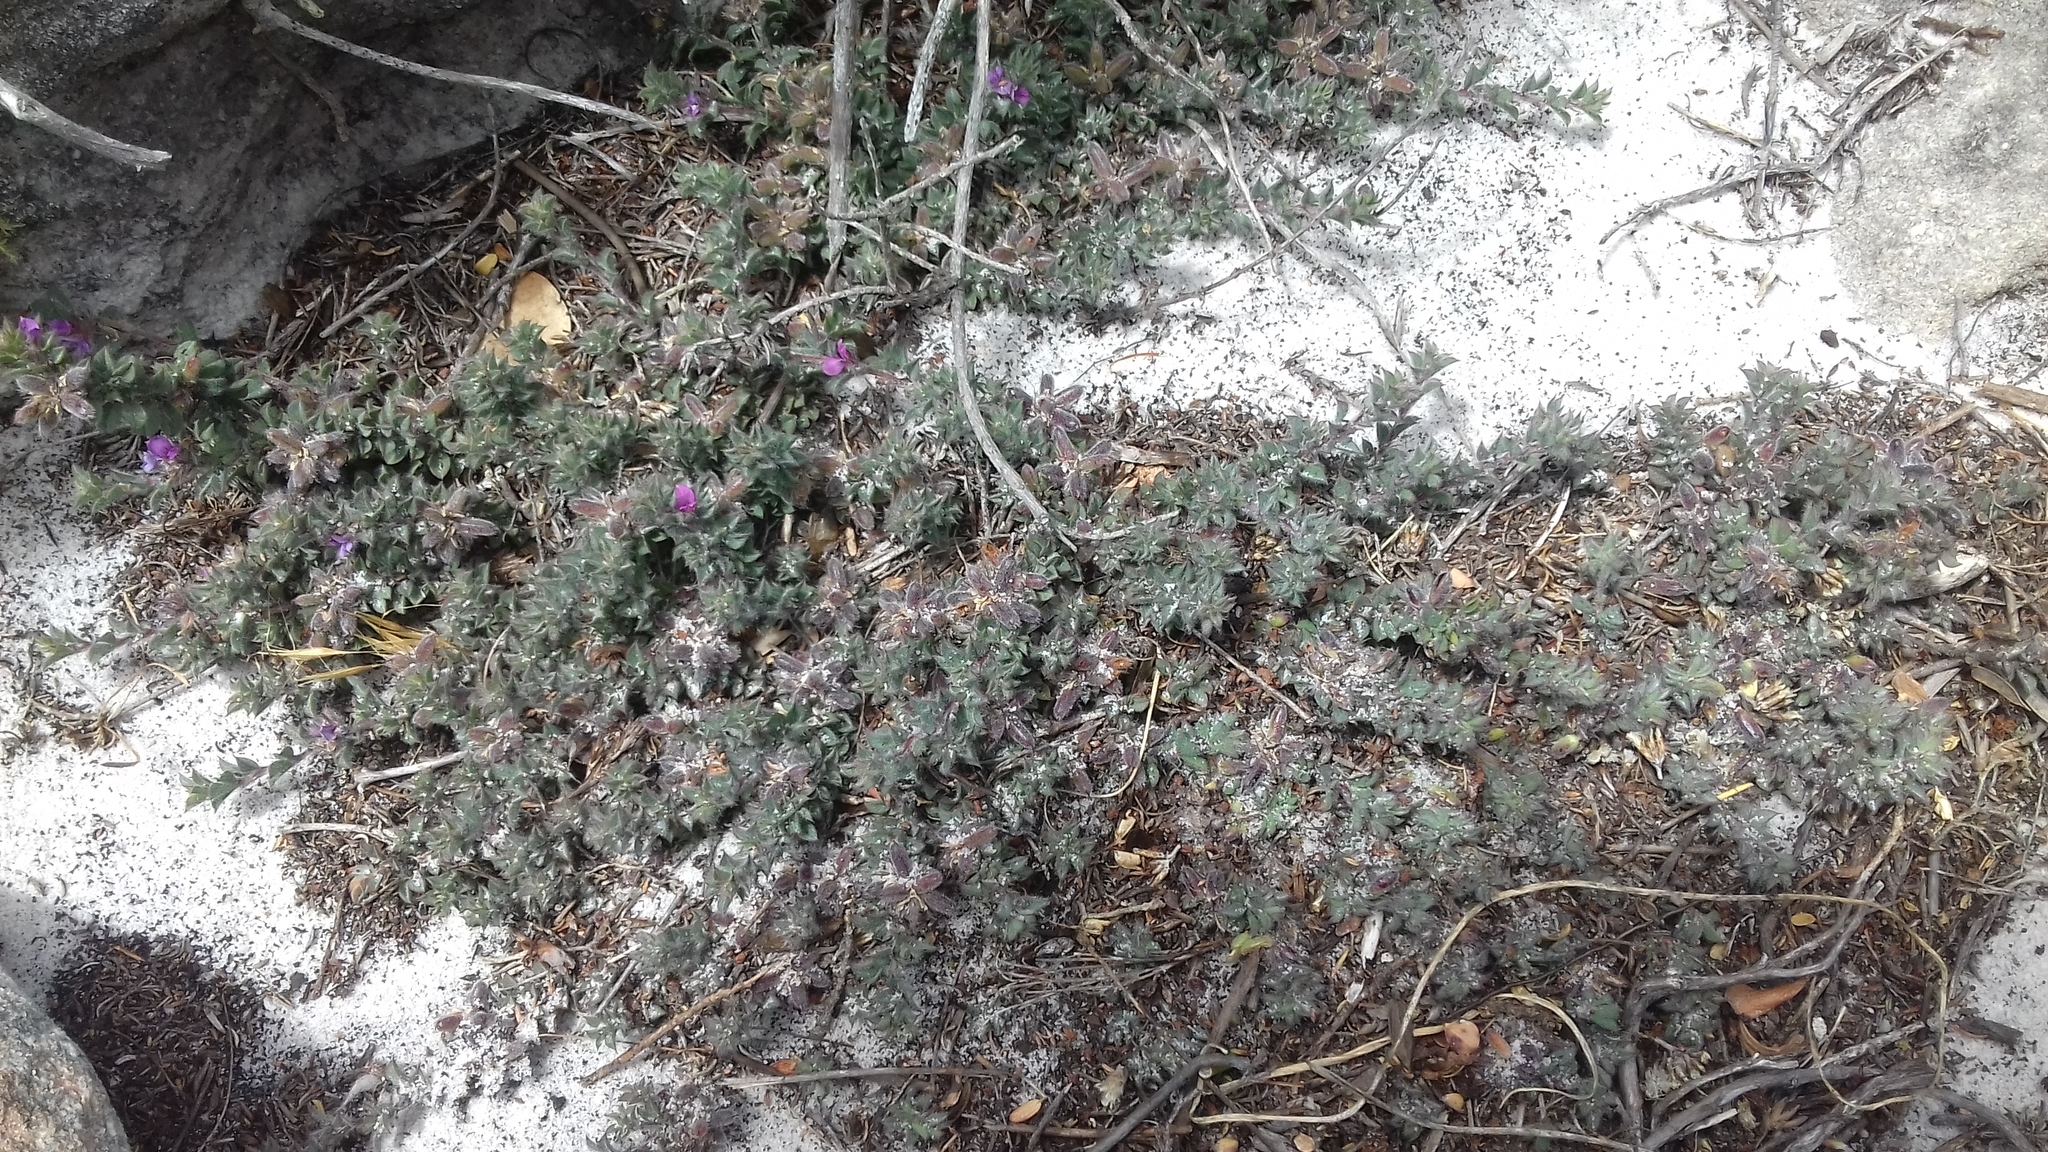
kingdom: Plantae
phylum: Tracheophyta
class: Magnoliopsida
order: Fabales
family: Fabaceae
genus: Indigofera
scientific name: Indigofera glomerata
